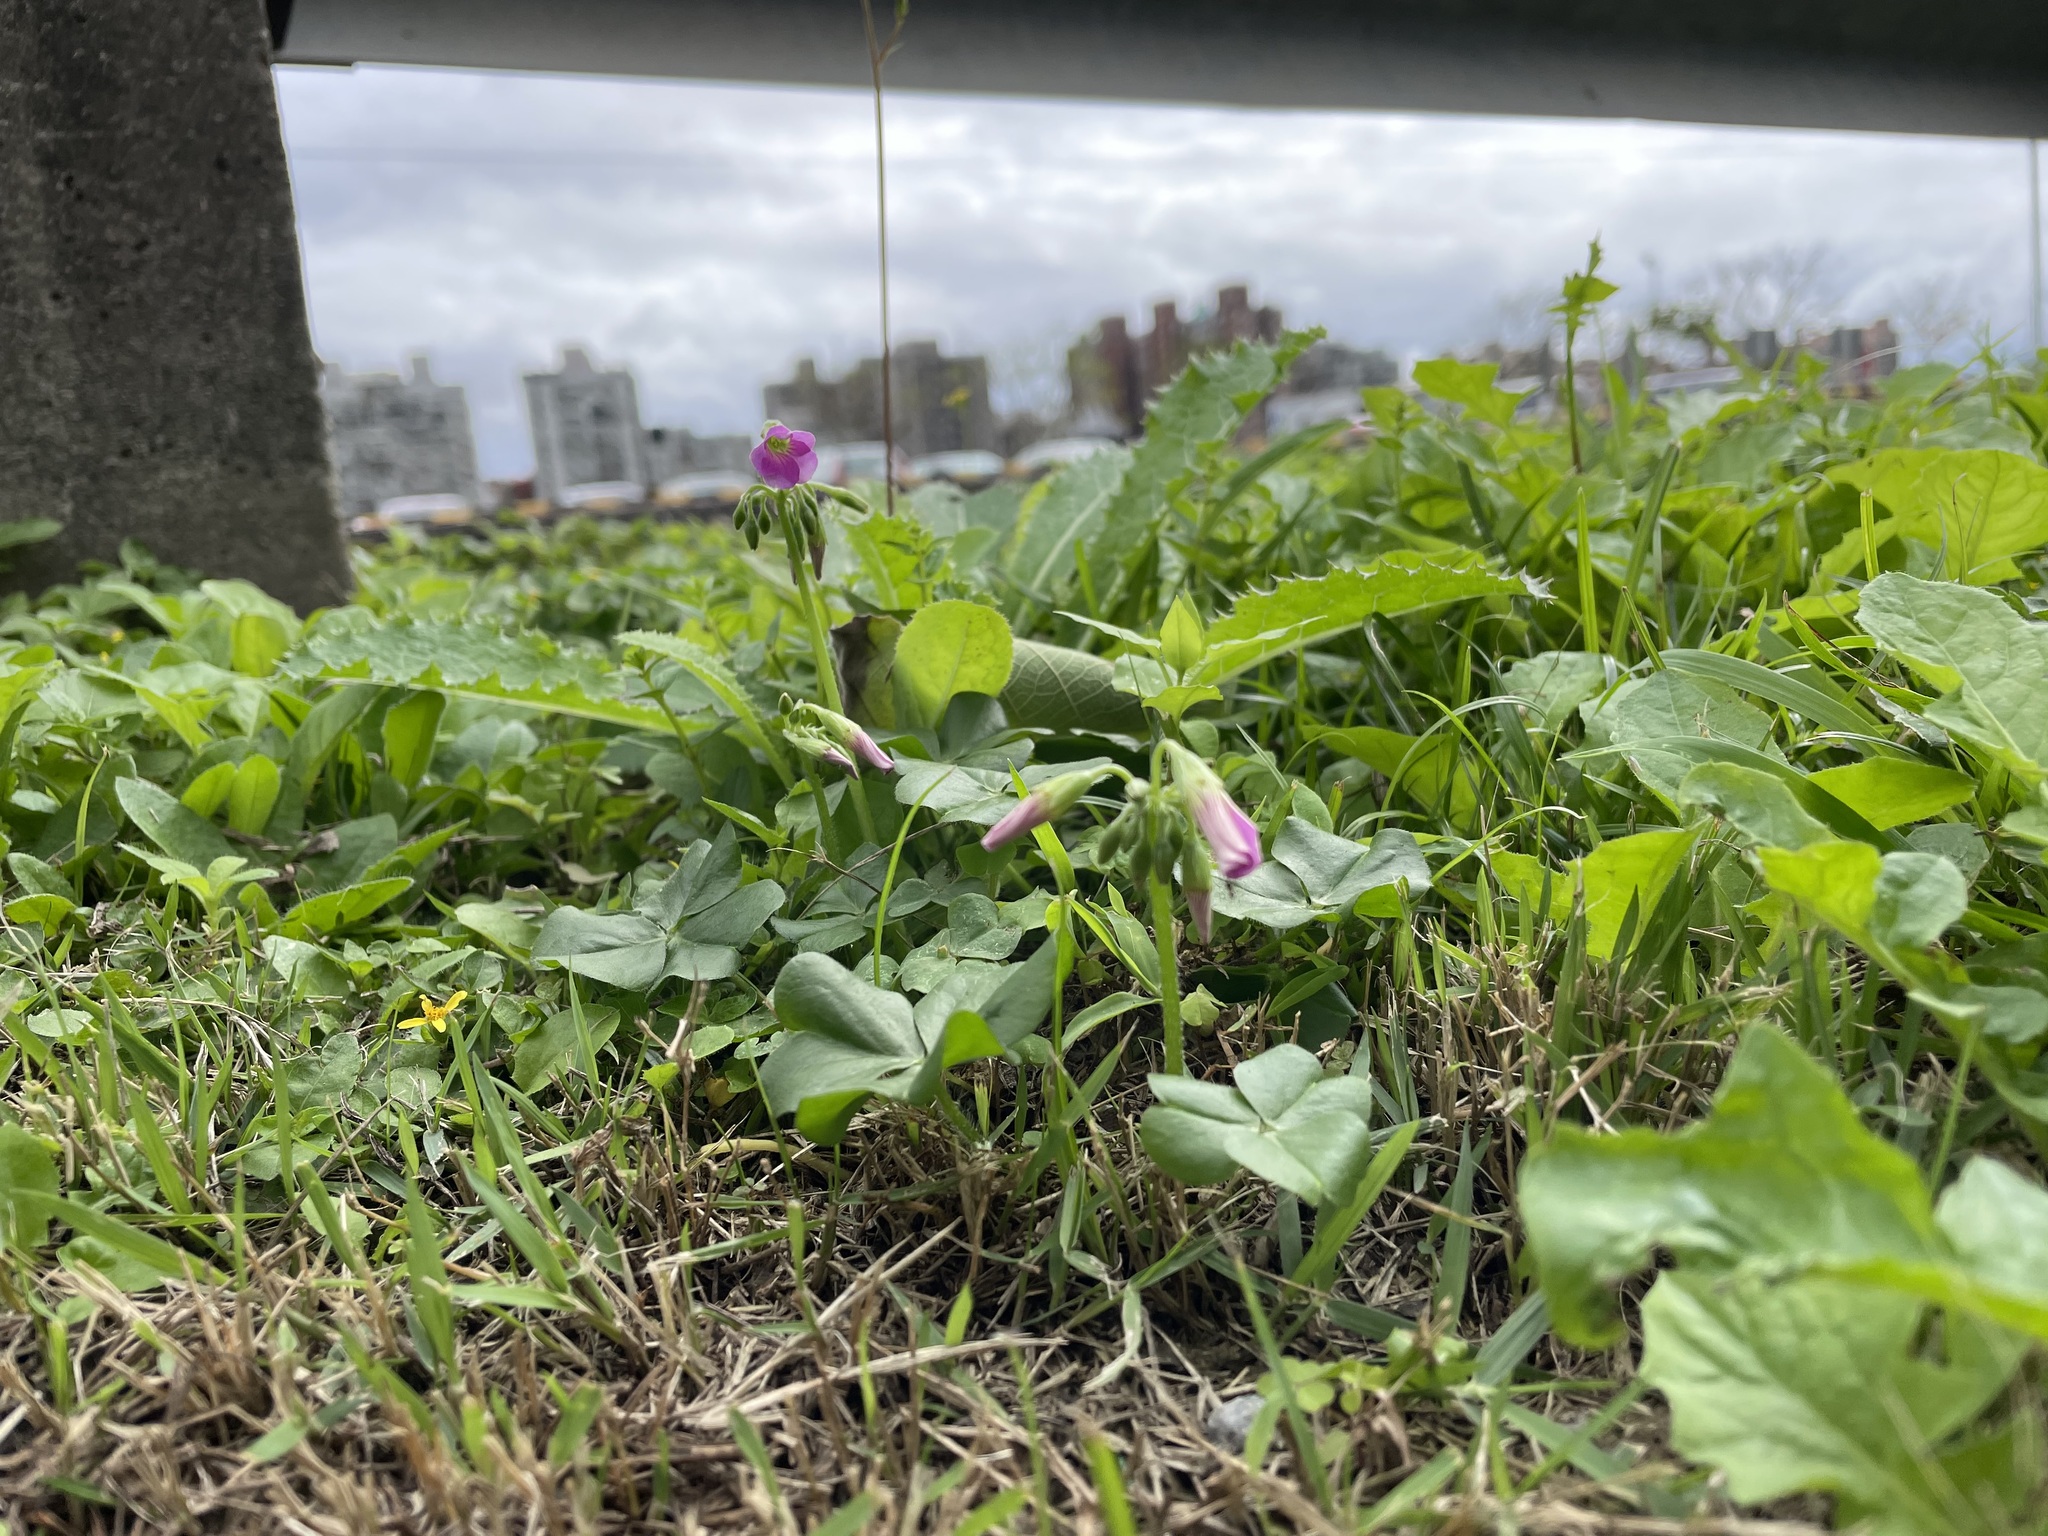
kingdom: Plantae
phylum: Tracheophyta
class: Magnoliopsida
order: Oxalidales
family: Oxalidaceae
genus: Oxalis
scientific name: Oxalis debilis
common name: Large-flowered pink-sorrel
